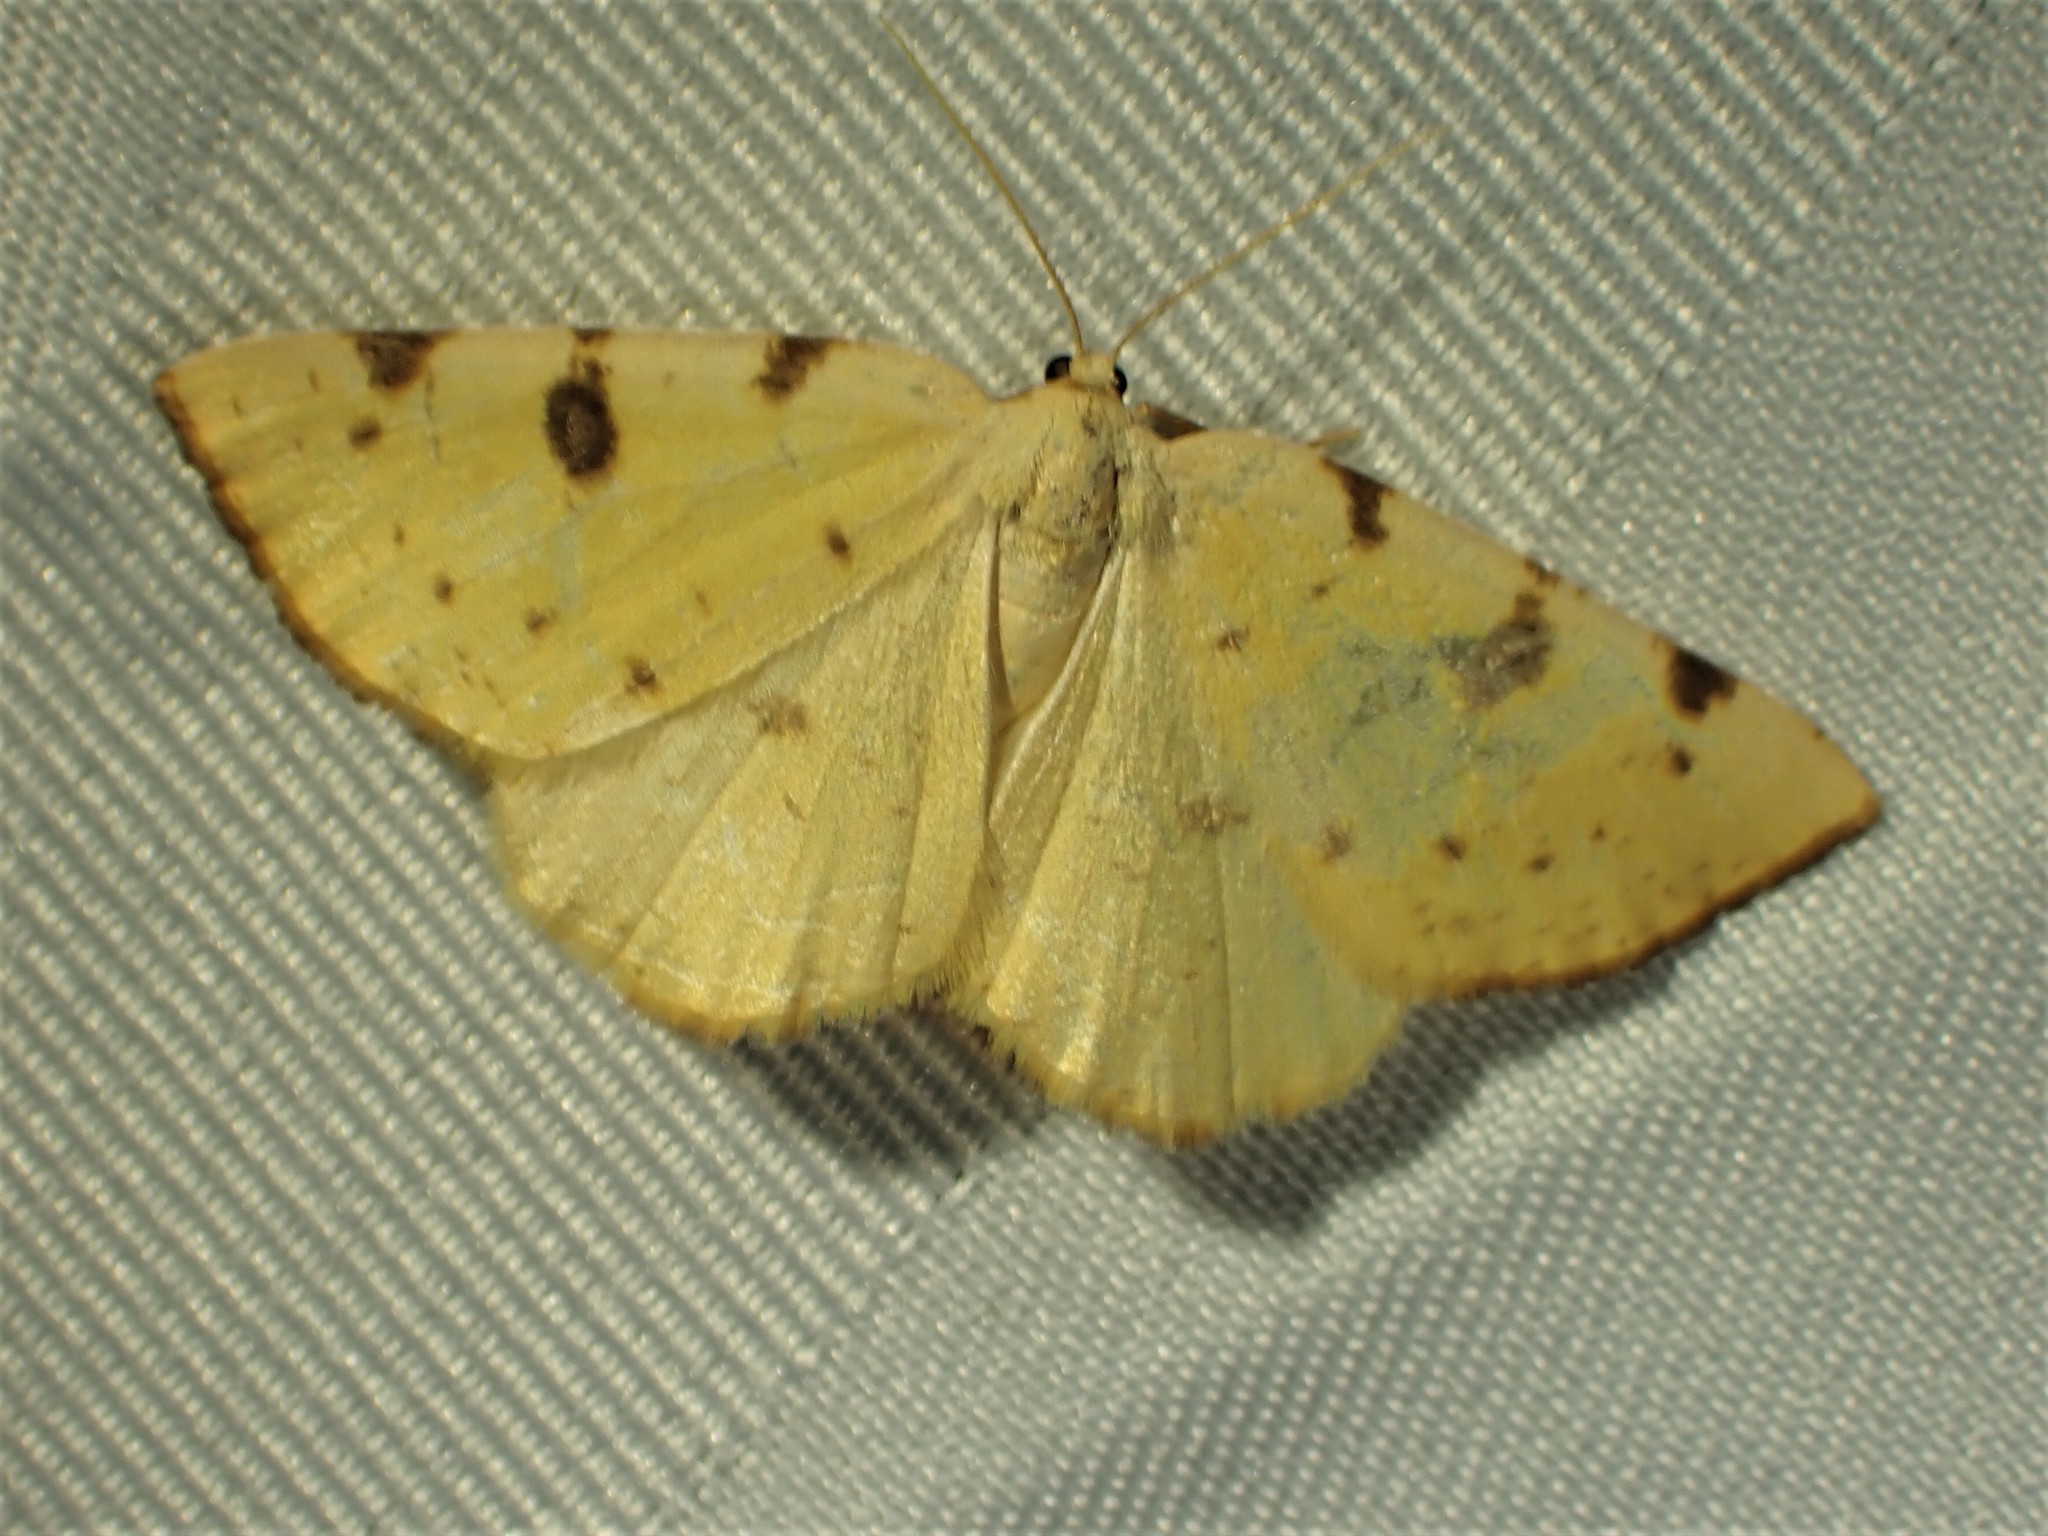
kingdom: Animalia
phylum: Arthropoda
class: Insecta
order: Lepidoptera
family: Geometridae
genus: Hesperumia
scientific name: Hesperumia sulphuraria
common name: Sulphur moth
